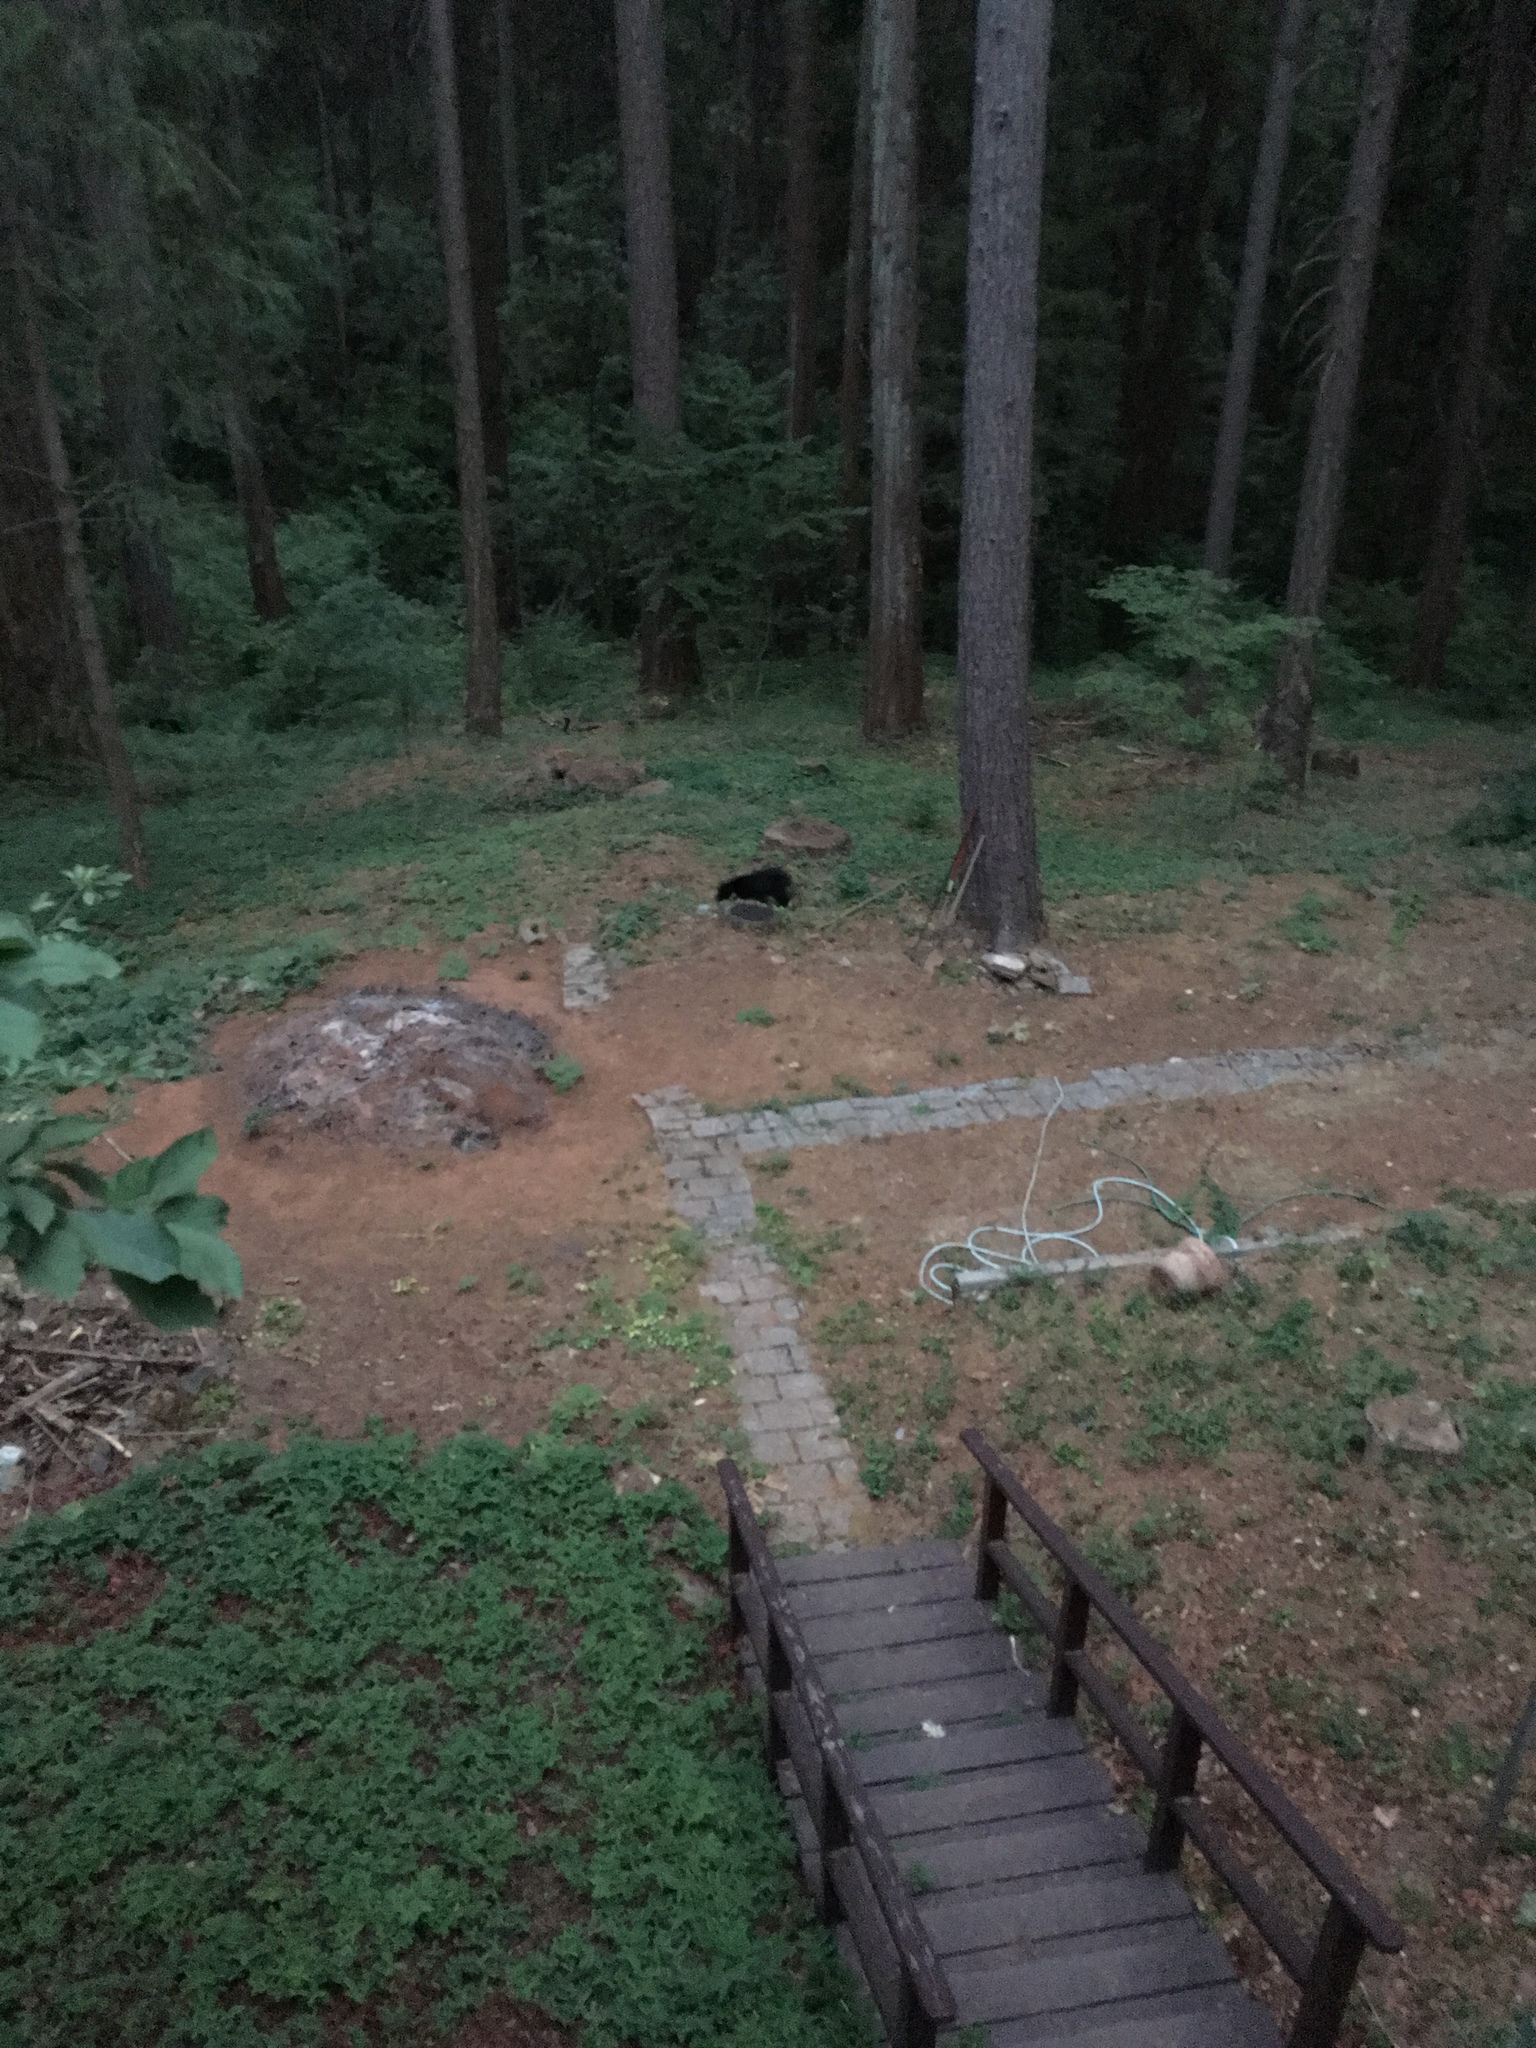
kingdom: Animalia
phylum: Chordata
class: Mammalia
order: Carnivora
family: Ursidae
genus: Ursus
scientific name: Ursus americanus
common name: American black bear
